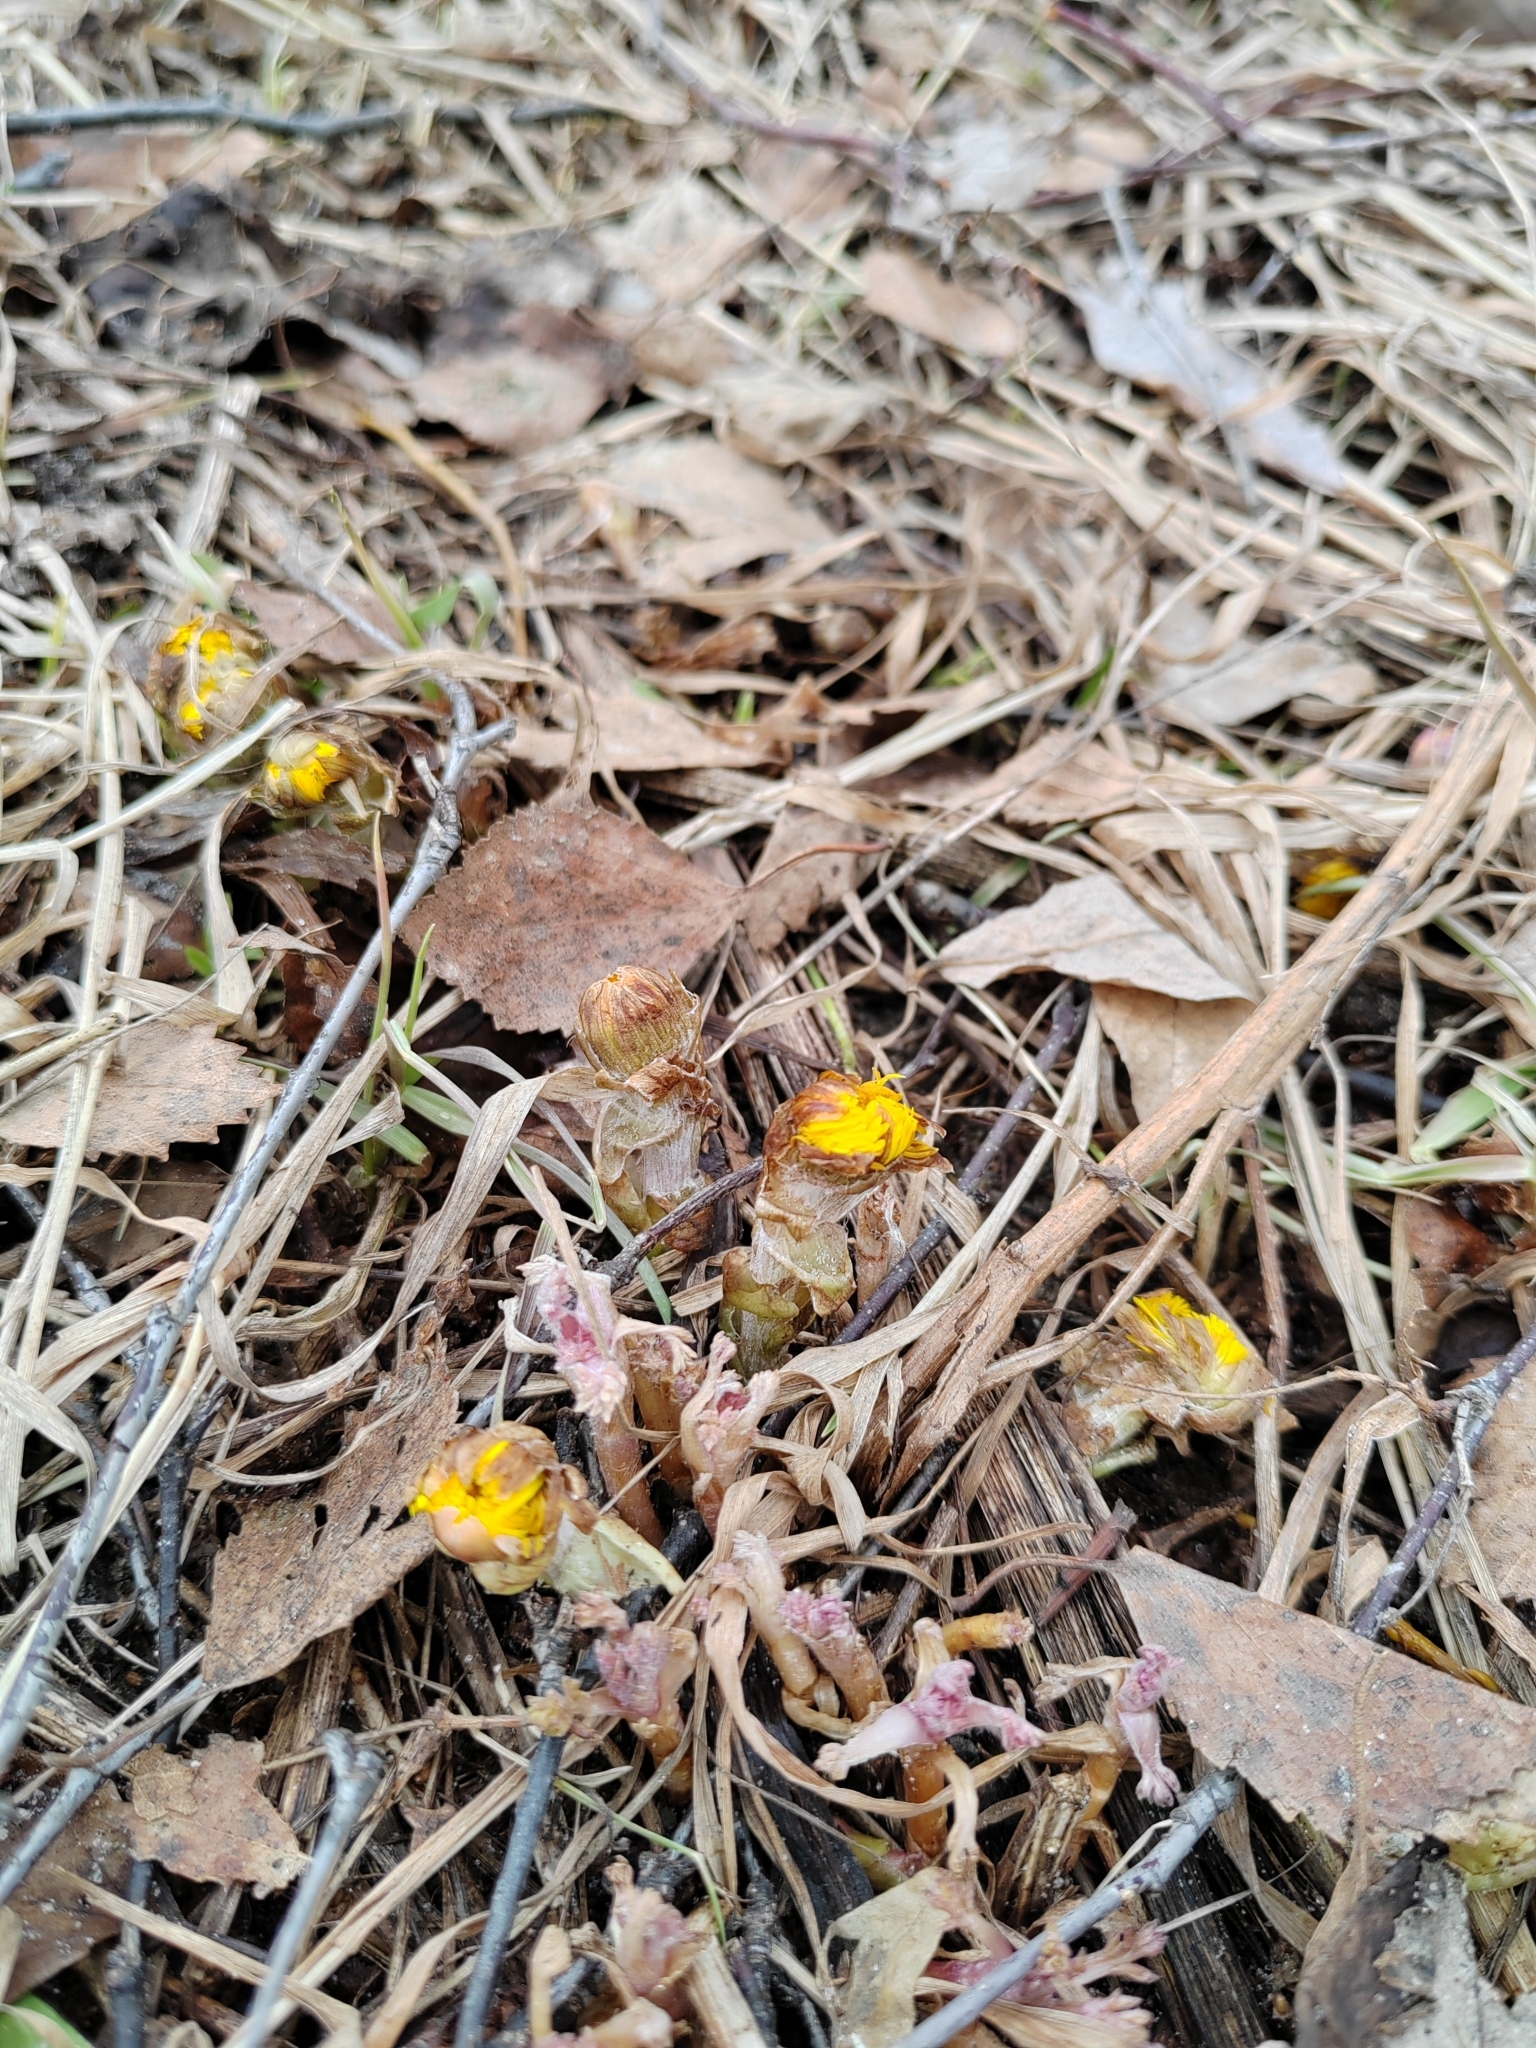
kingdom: Plantae
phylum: Tracheophyta
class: Magnoliopsida
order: Asterales
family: Asteraceae
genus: Tussilago
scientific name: Tussilago farfara
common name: Coltsfoot
